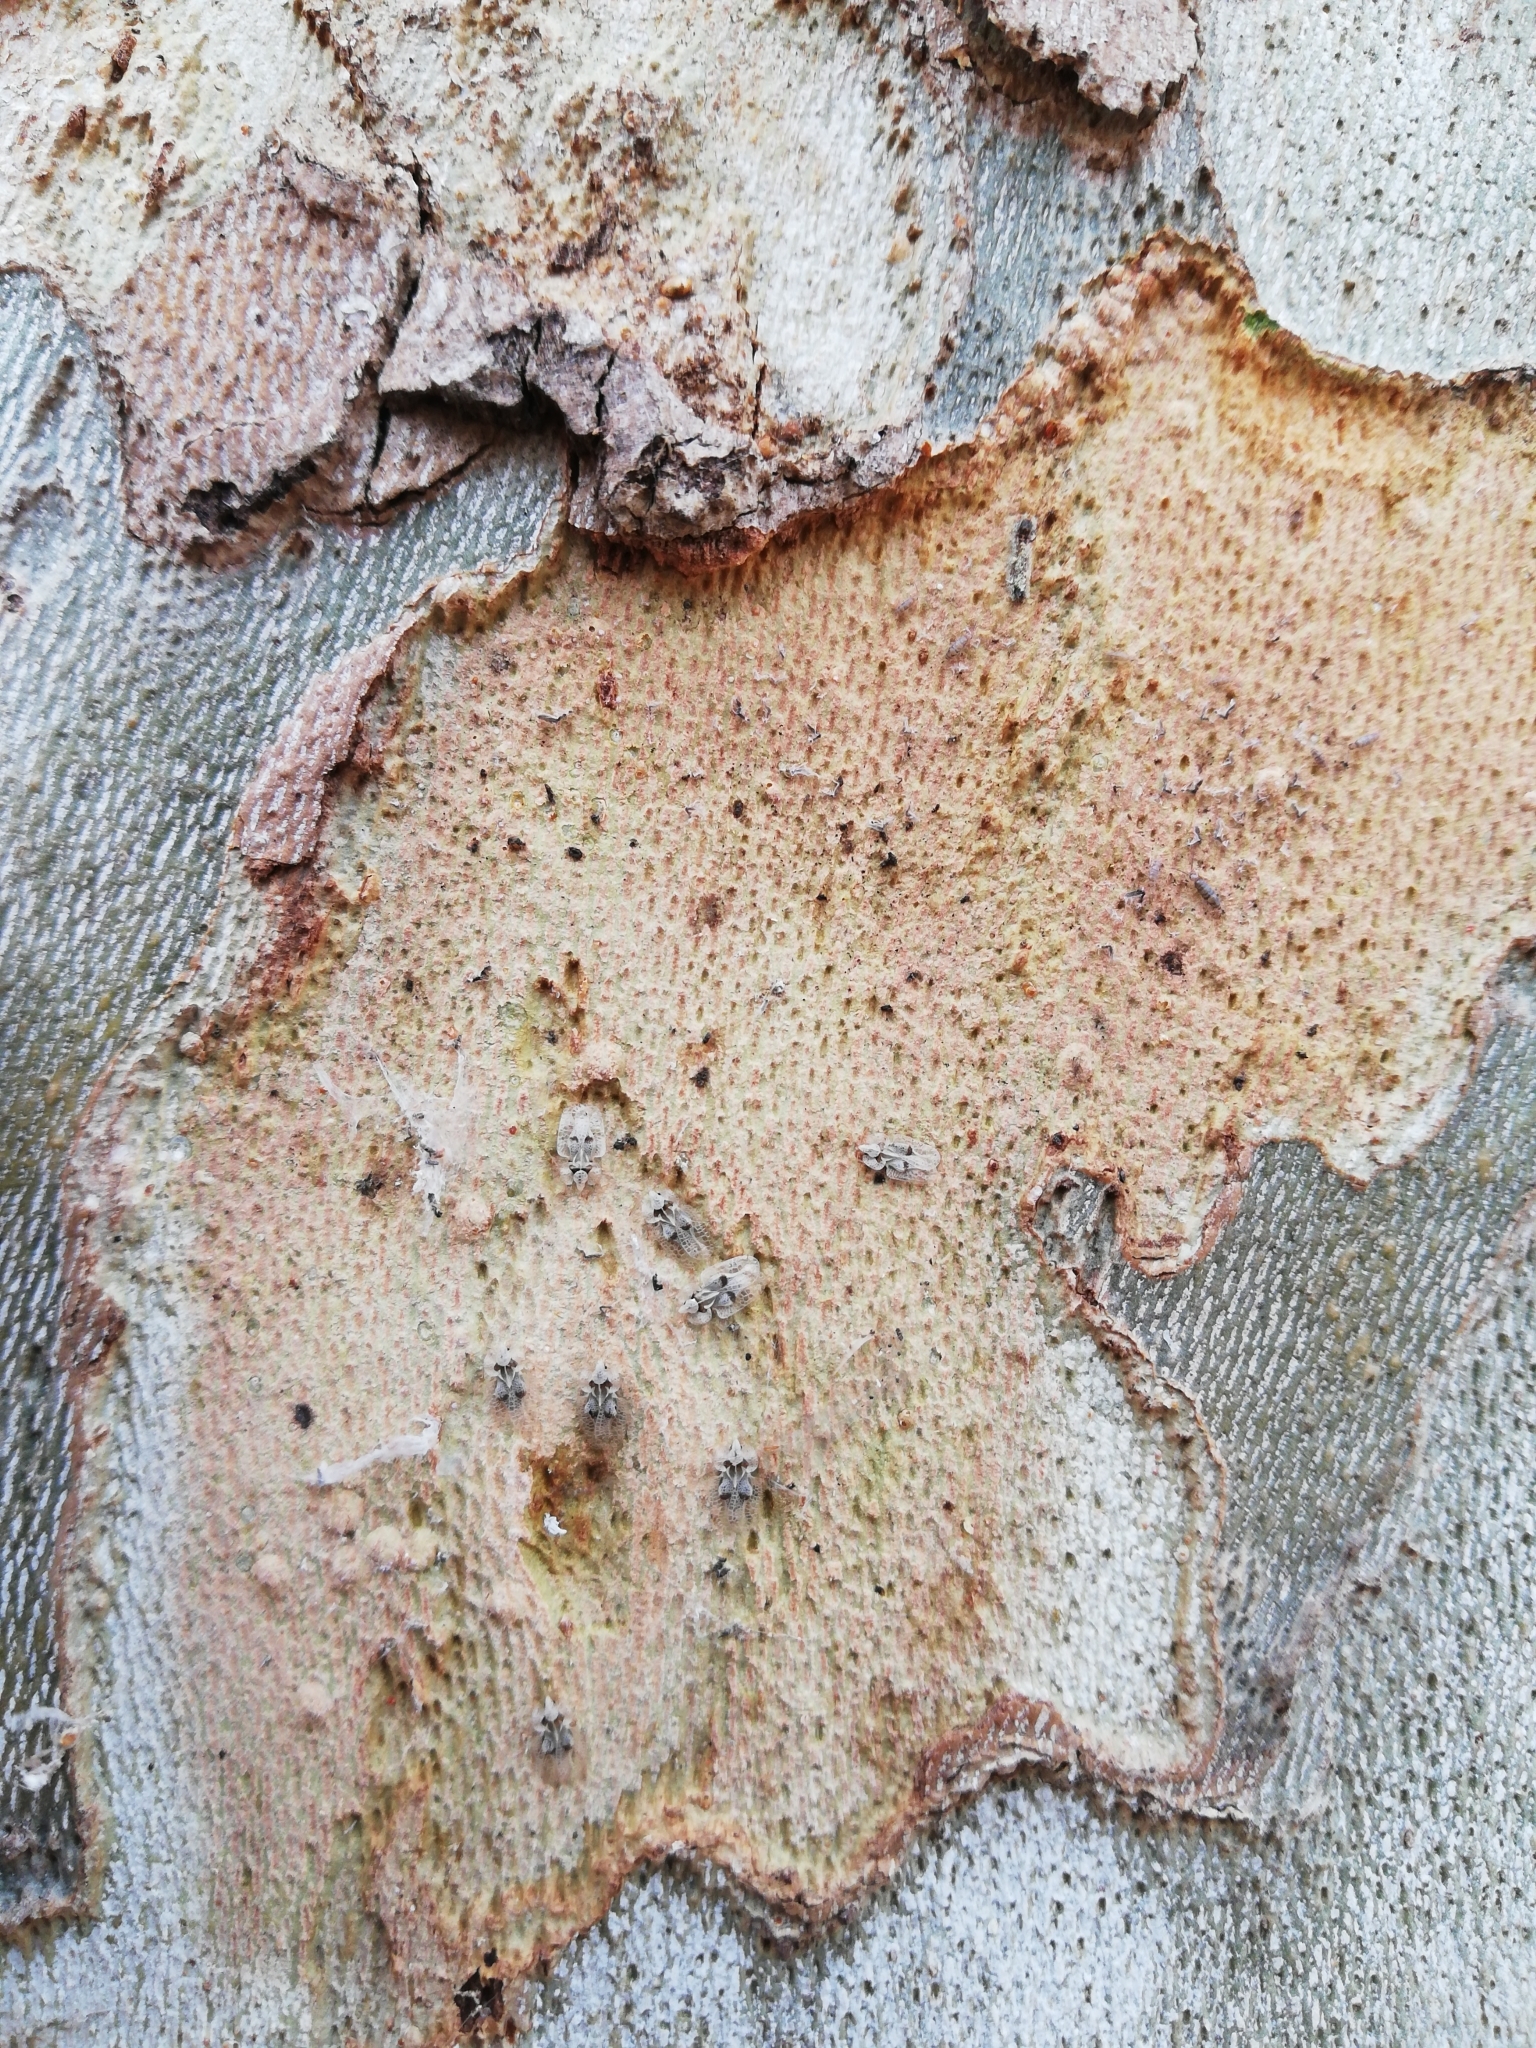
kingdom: Animalia
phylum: Arthropoda
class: Insecta
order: Hemiptera
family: Tingidae
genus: Corythucha
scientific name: Corythucha ciliata
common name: Sycamore lace bug
